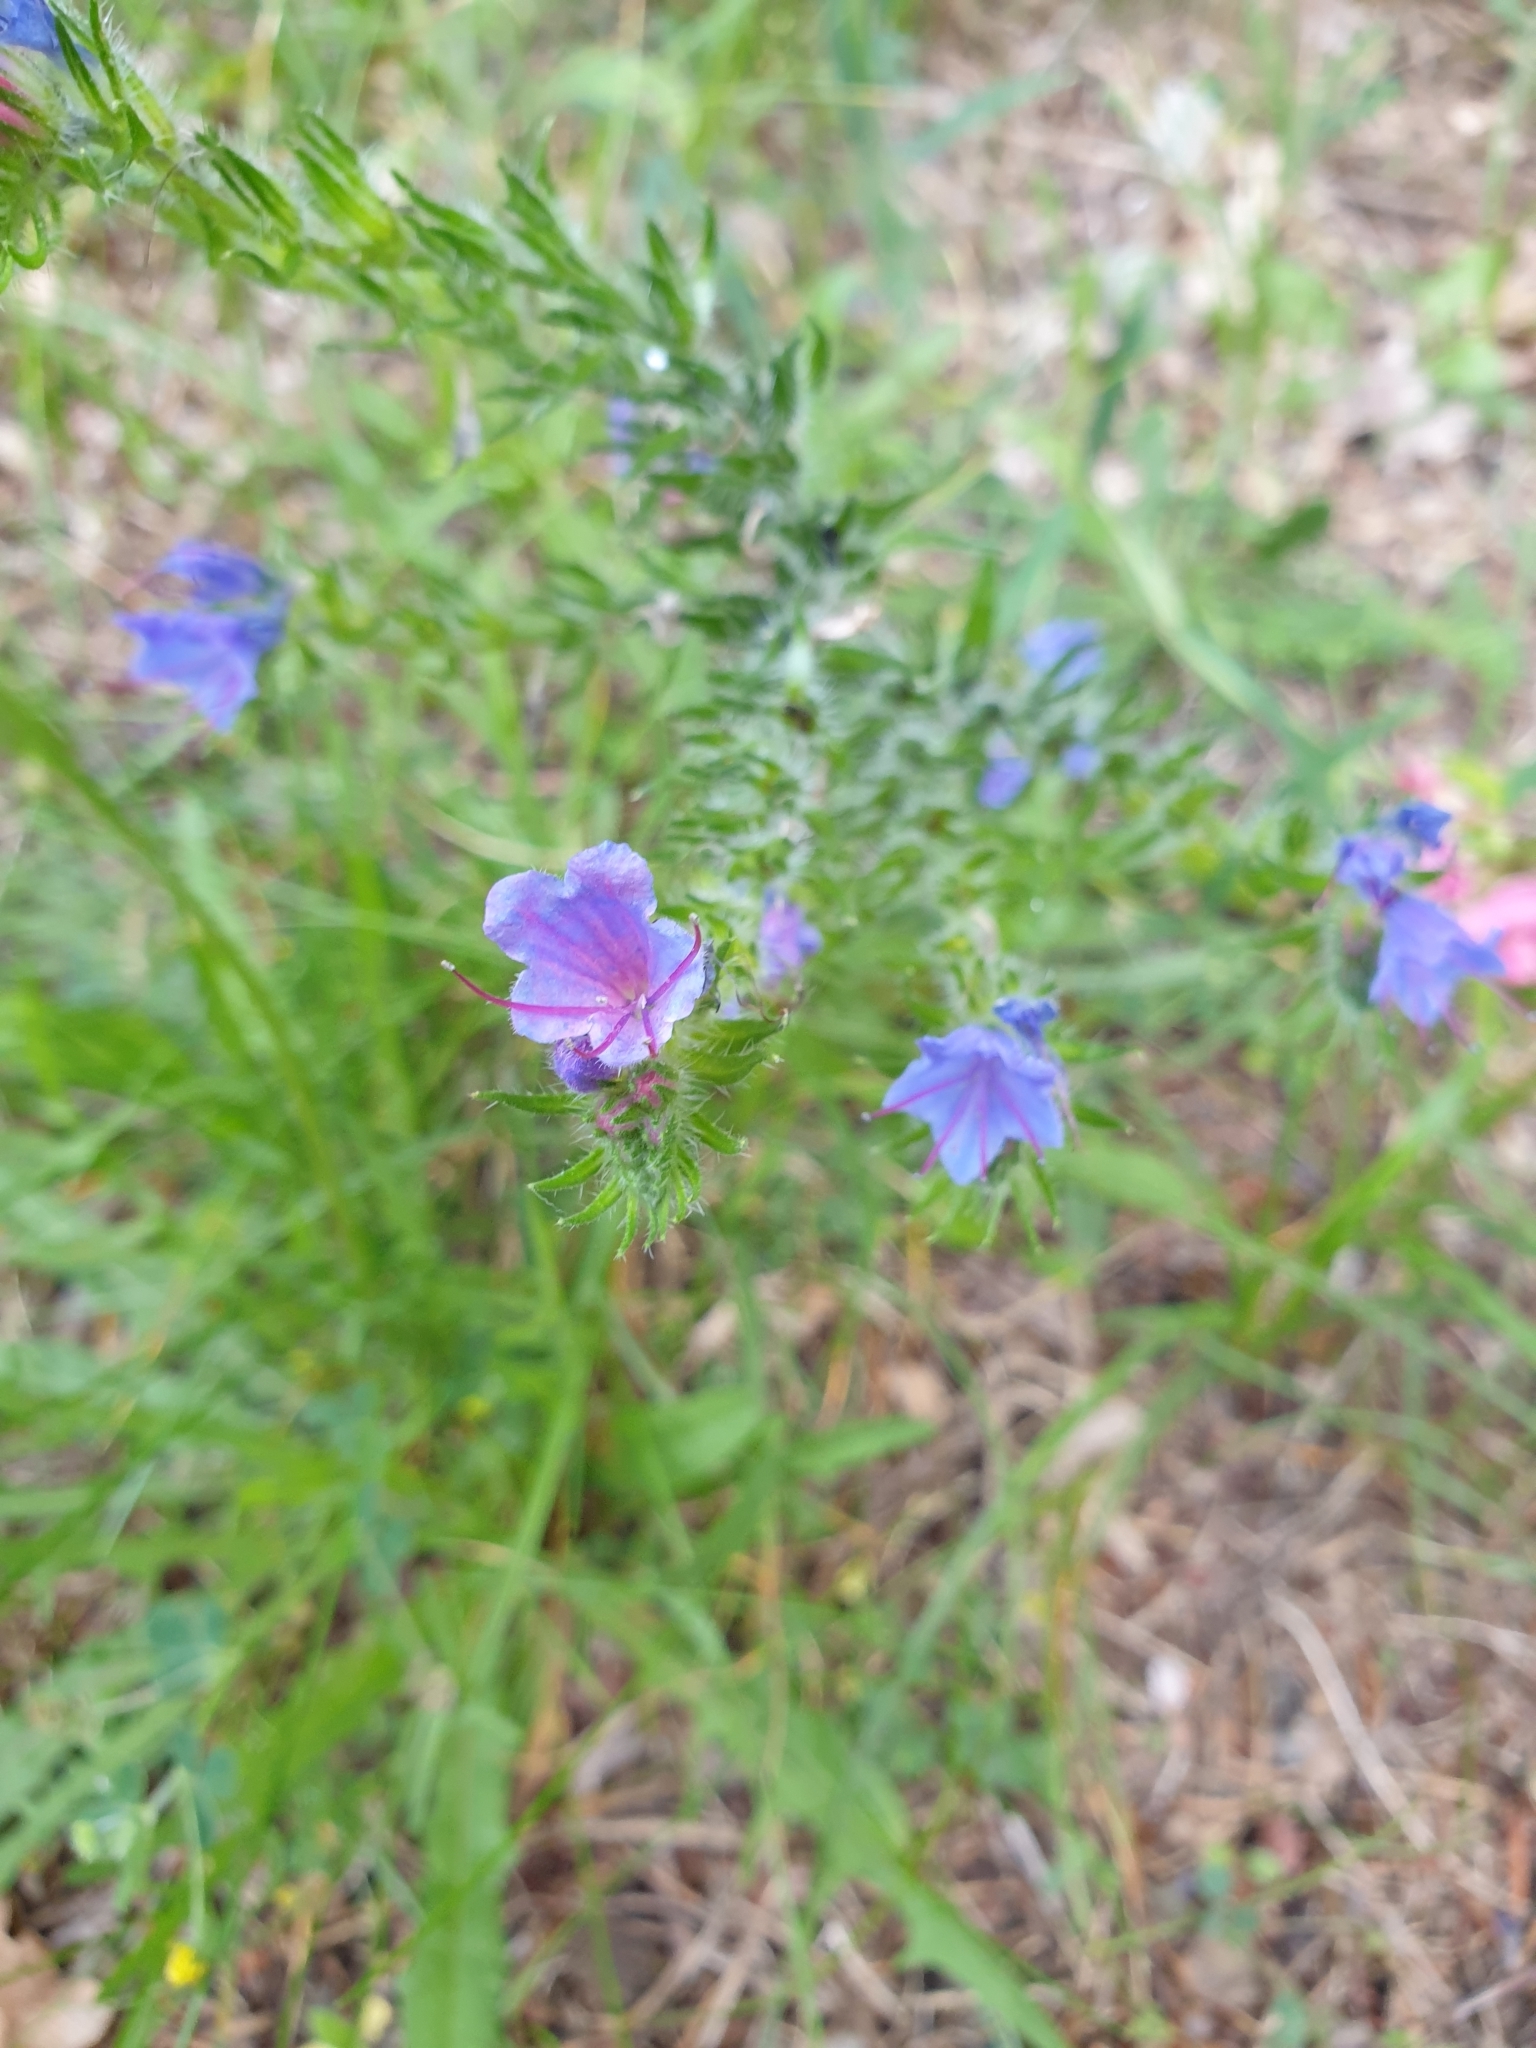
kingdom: Plantae
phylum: Tracheophyta
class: Magnoliopsida
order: Boraginales
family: Boraginaceae
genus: Echium
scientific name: Echium vulgare
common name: Common viper's bugloss
